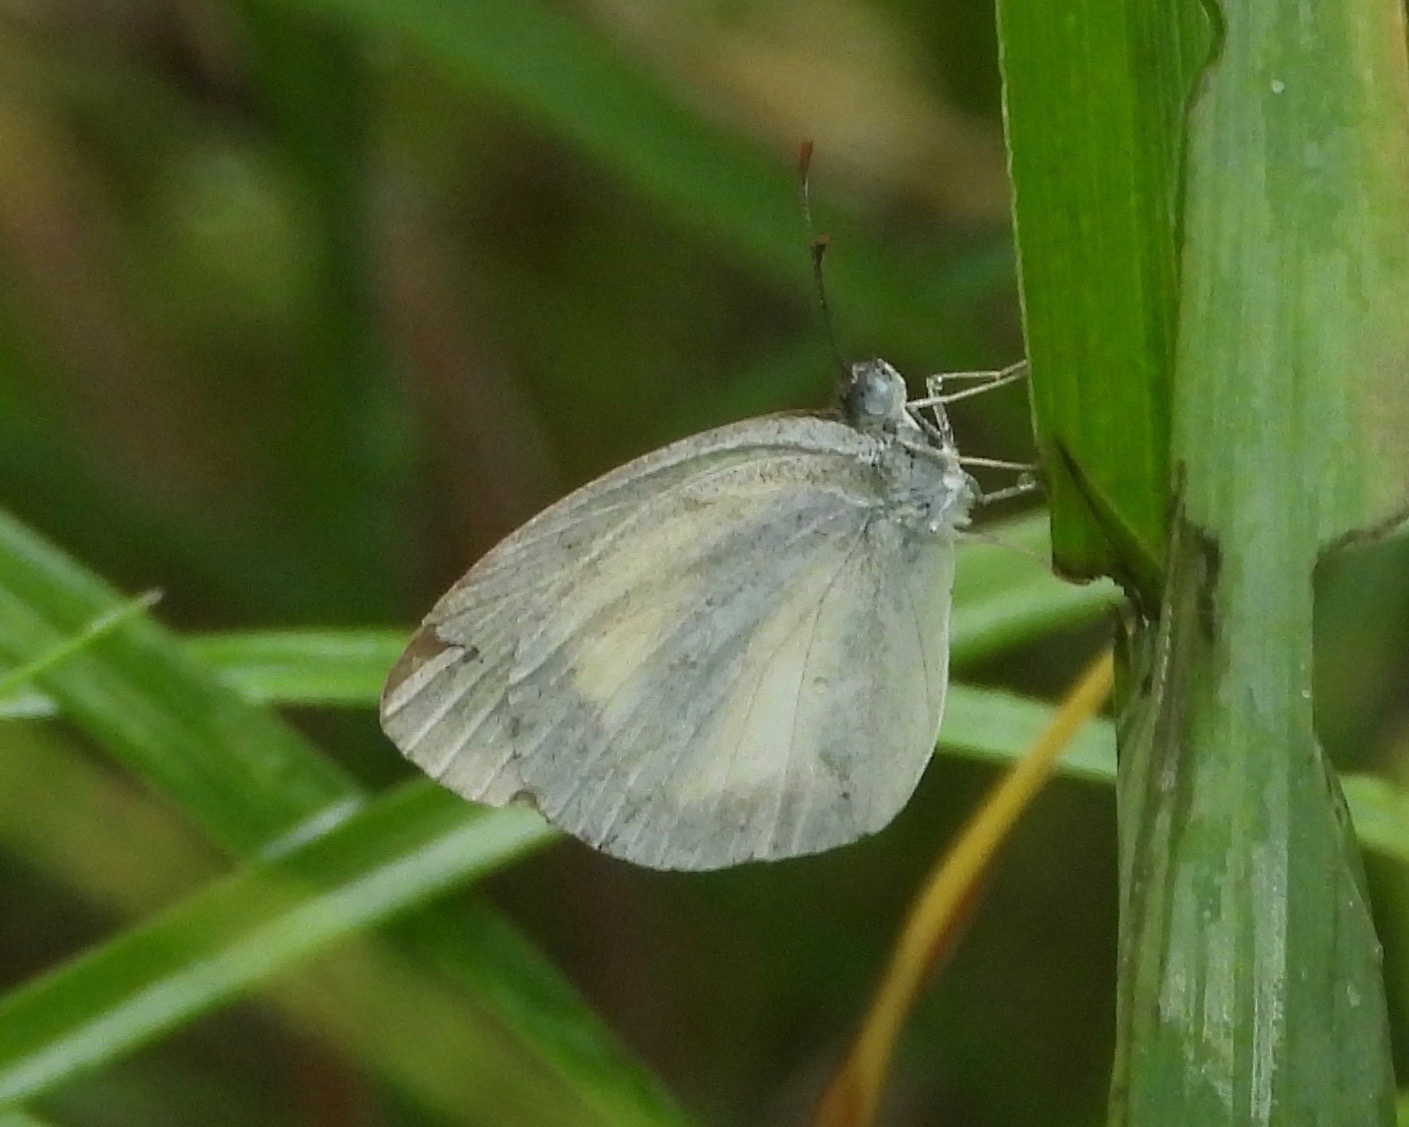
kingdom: Animalia
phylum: Arthropoda
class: Insecta
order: Lepidoptera
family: Pieridae
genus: Eurema
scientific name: Eurema daira
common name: Barred sulphur
